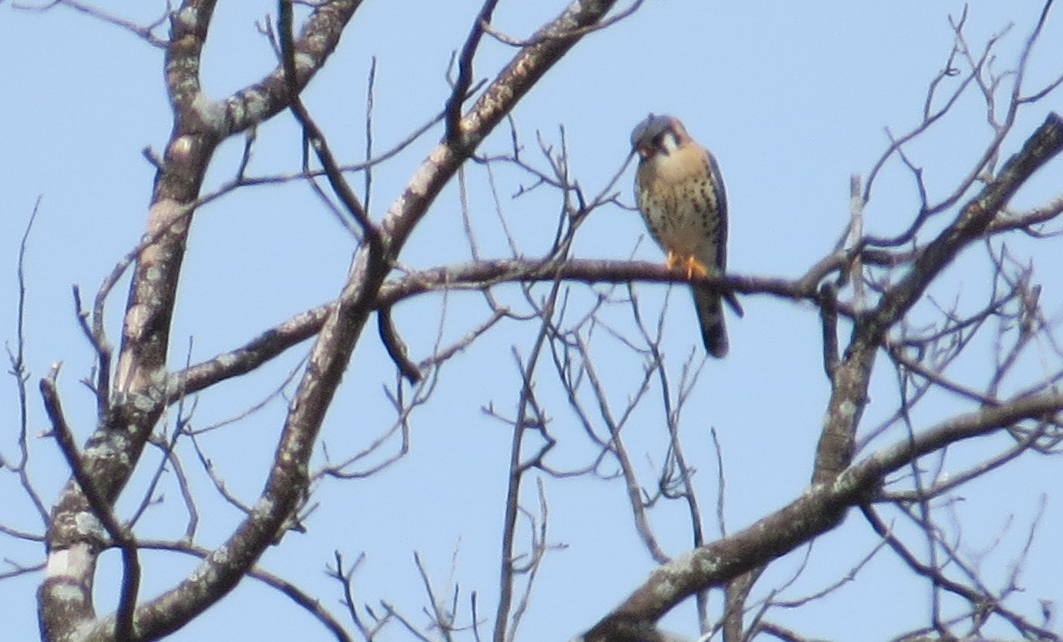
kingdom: Animalia
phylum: Chordata
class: Aves
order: Falconiformes
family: Falconidae
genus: Falco
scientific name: Falco sparverius
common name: American kestrel
